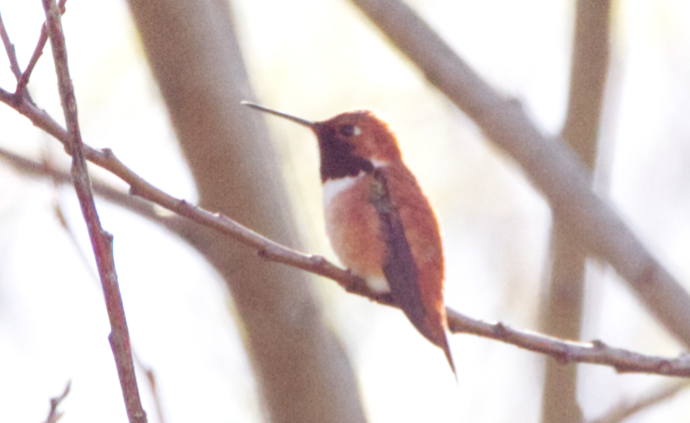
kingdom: Animalia
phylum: Chordata
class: Aves
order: Apodiformes
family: Trochilidae
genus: Selasphorus
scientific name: Selasphorus rufus
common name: Rufous hummingbird
